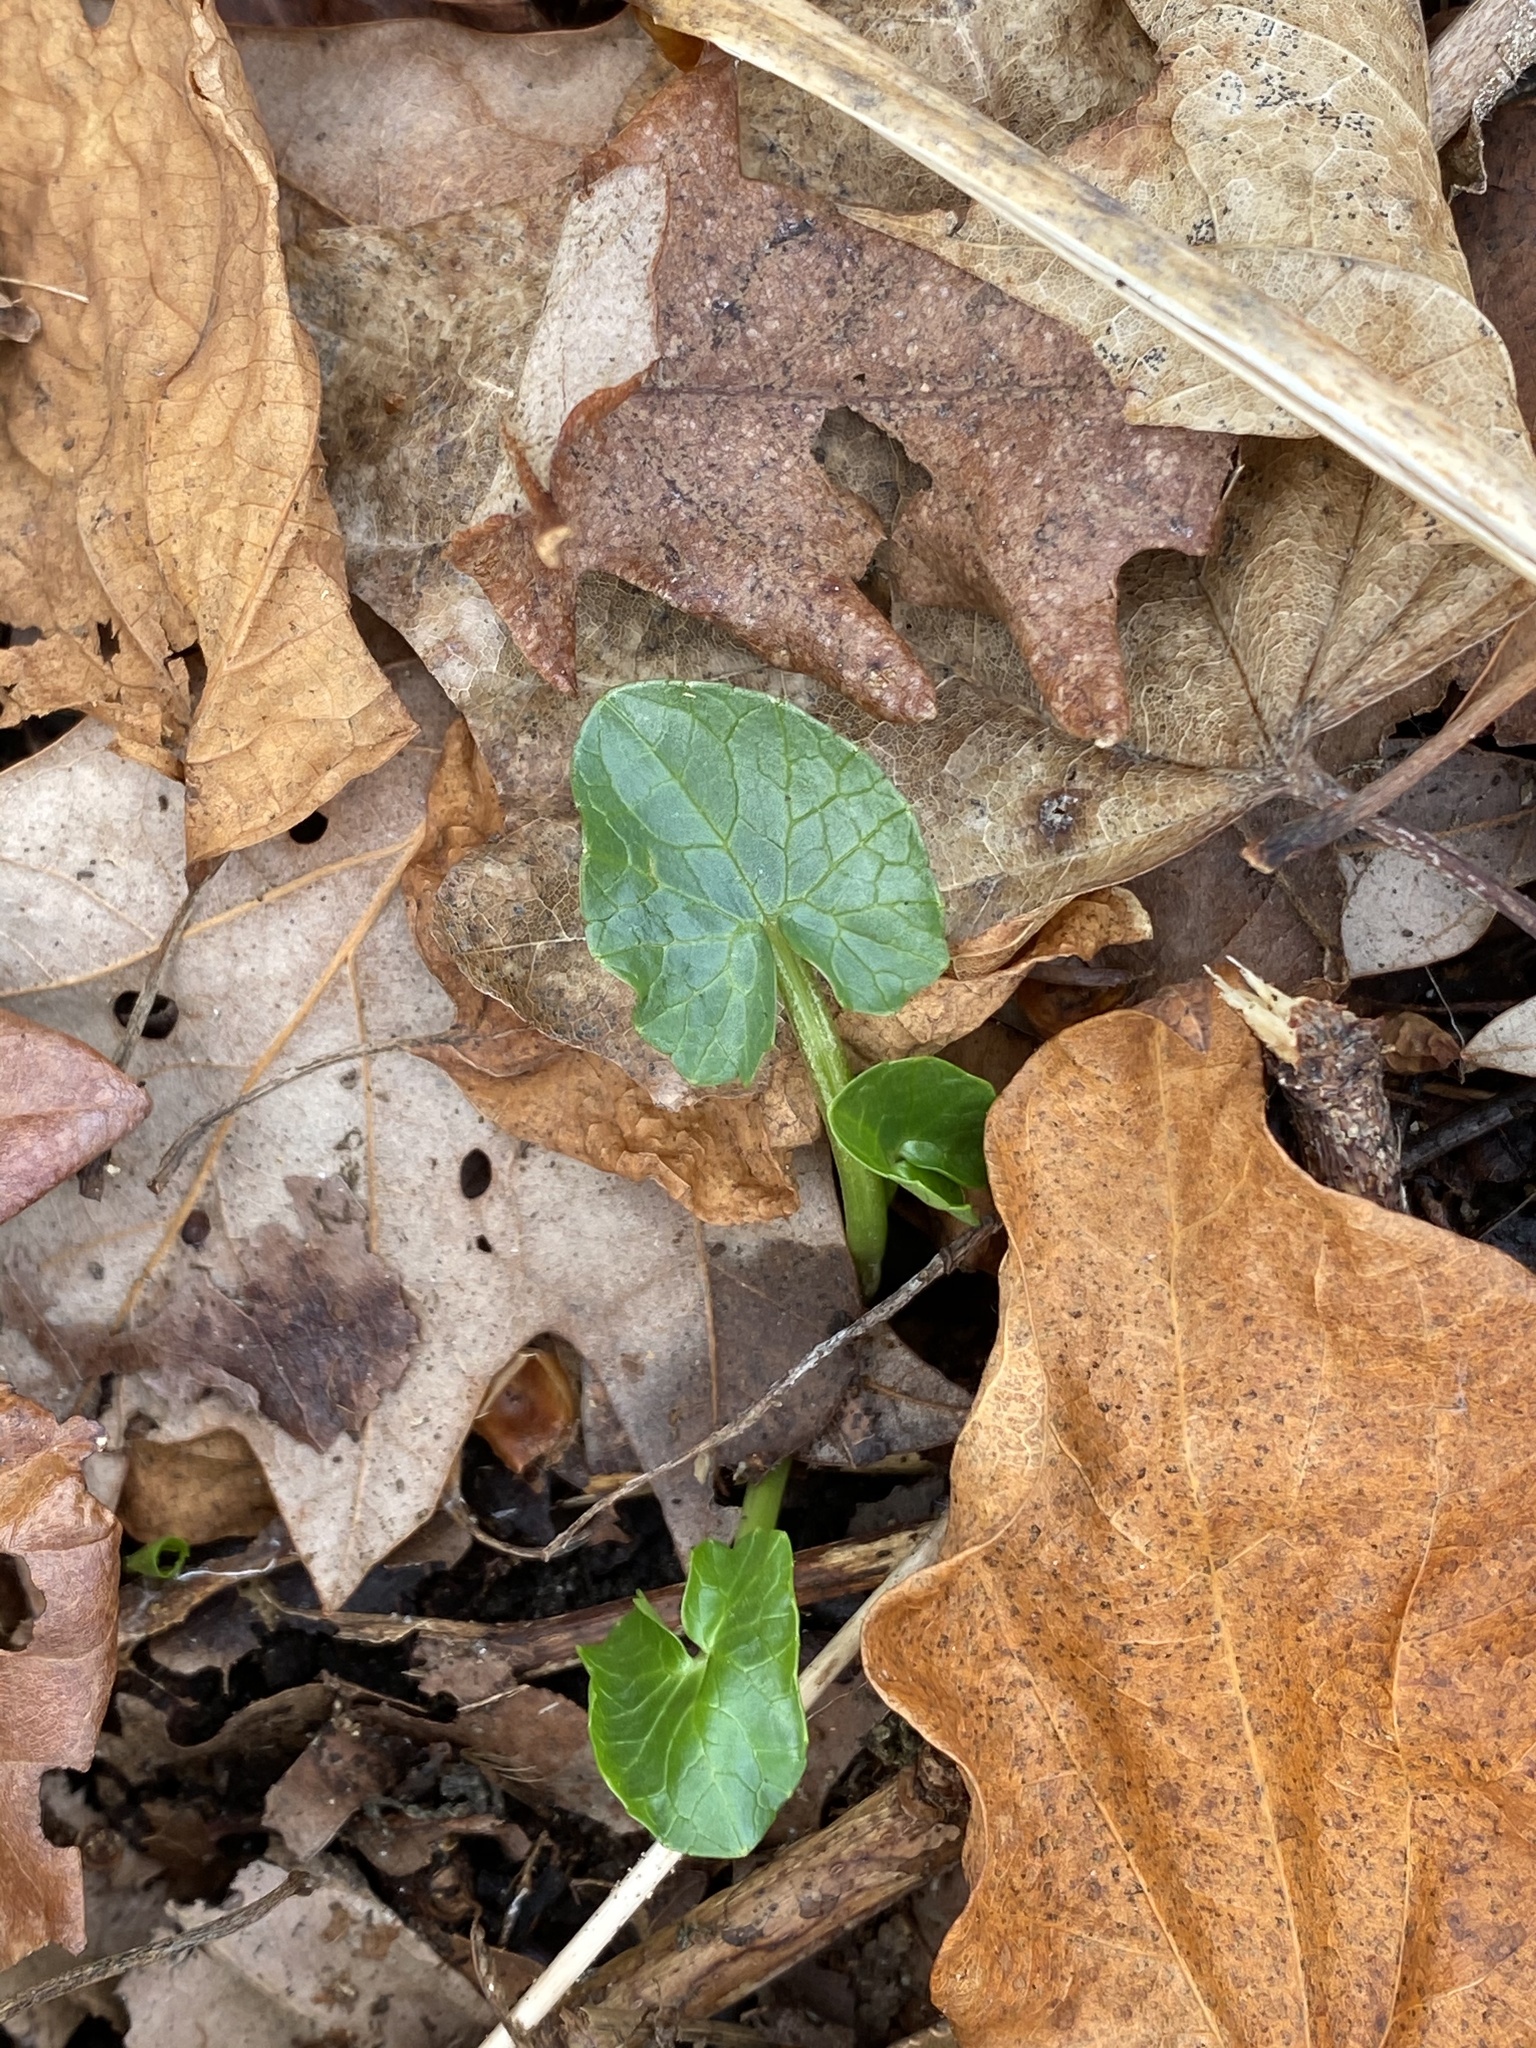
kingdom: Plantae
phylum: Tracheophyta
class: Magnoliopsida
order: Ranunculales
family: Ranunculaceae
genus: Ficaria
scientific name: Ficaria verna
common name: Lesser celandine
